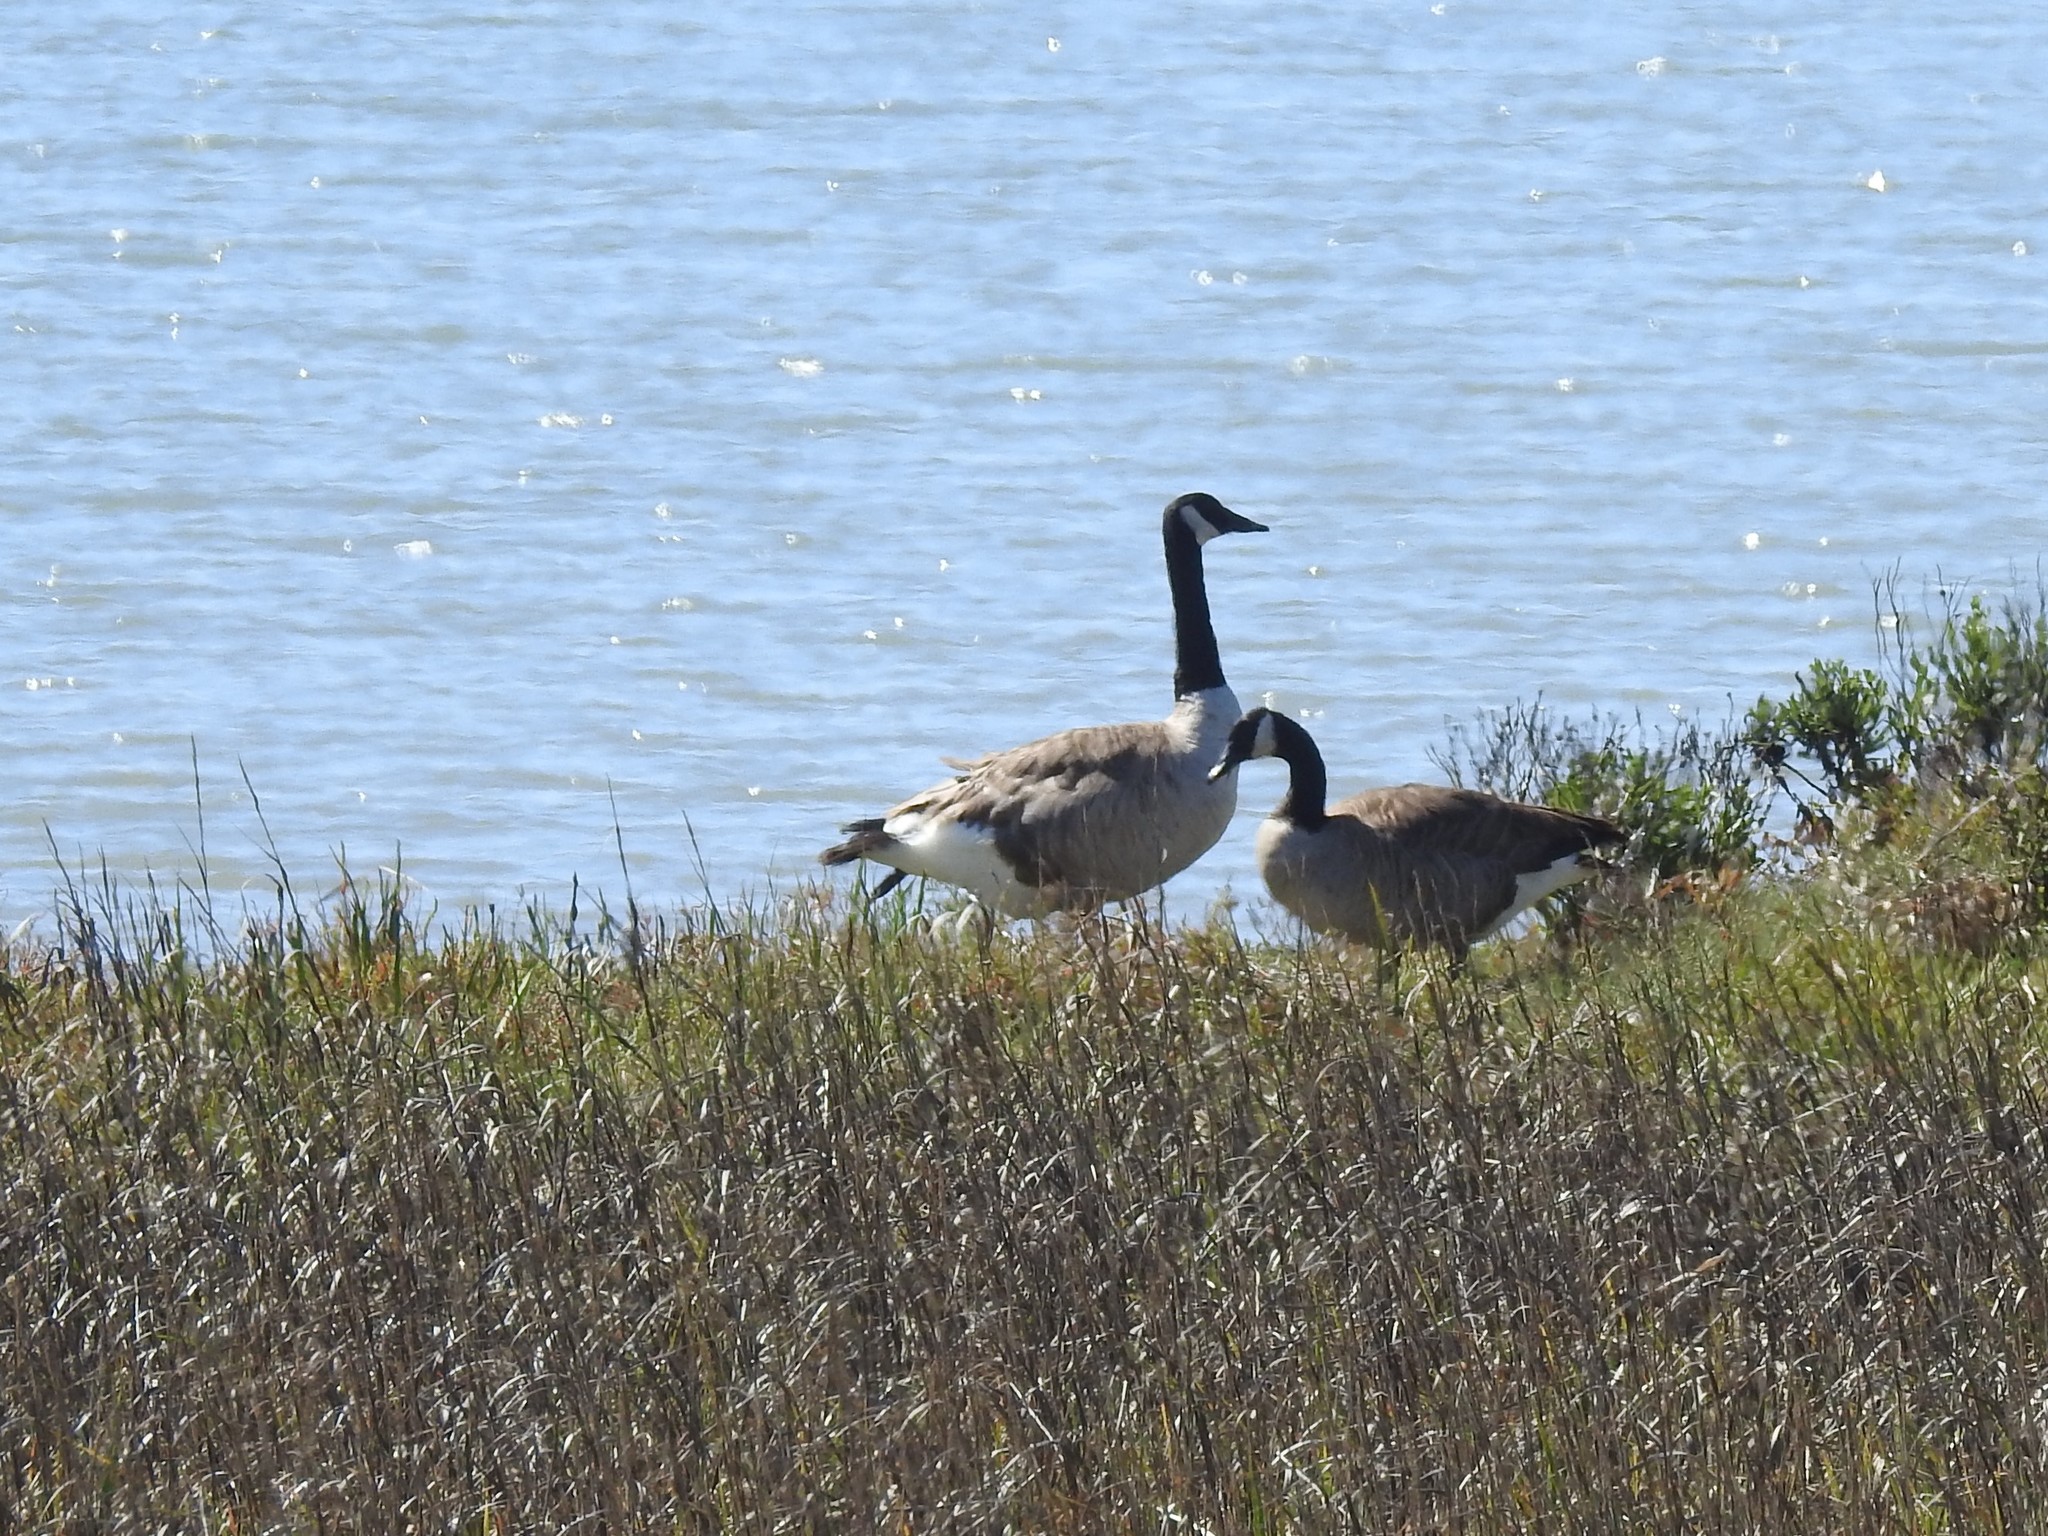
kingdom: Animalia
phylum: Chordata
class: Aves
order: Anseriformes
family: Anatidae
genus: Branta
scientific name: Branta canadensis
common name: Canada goose
